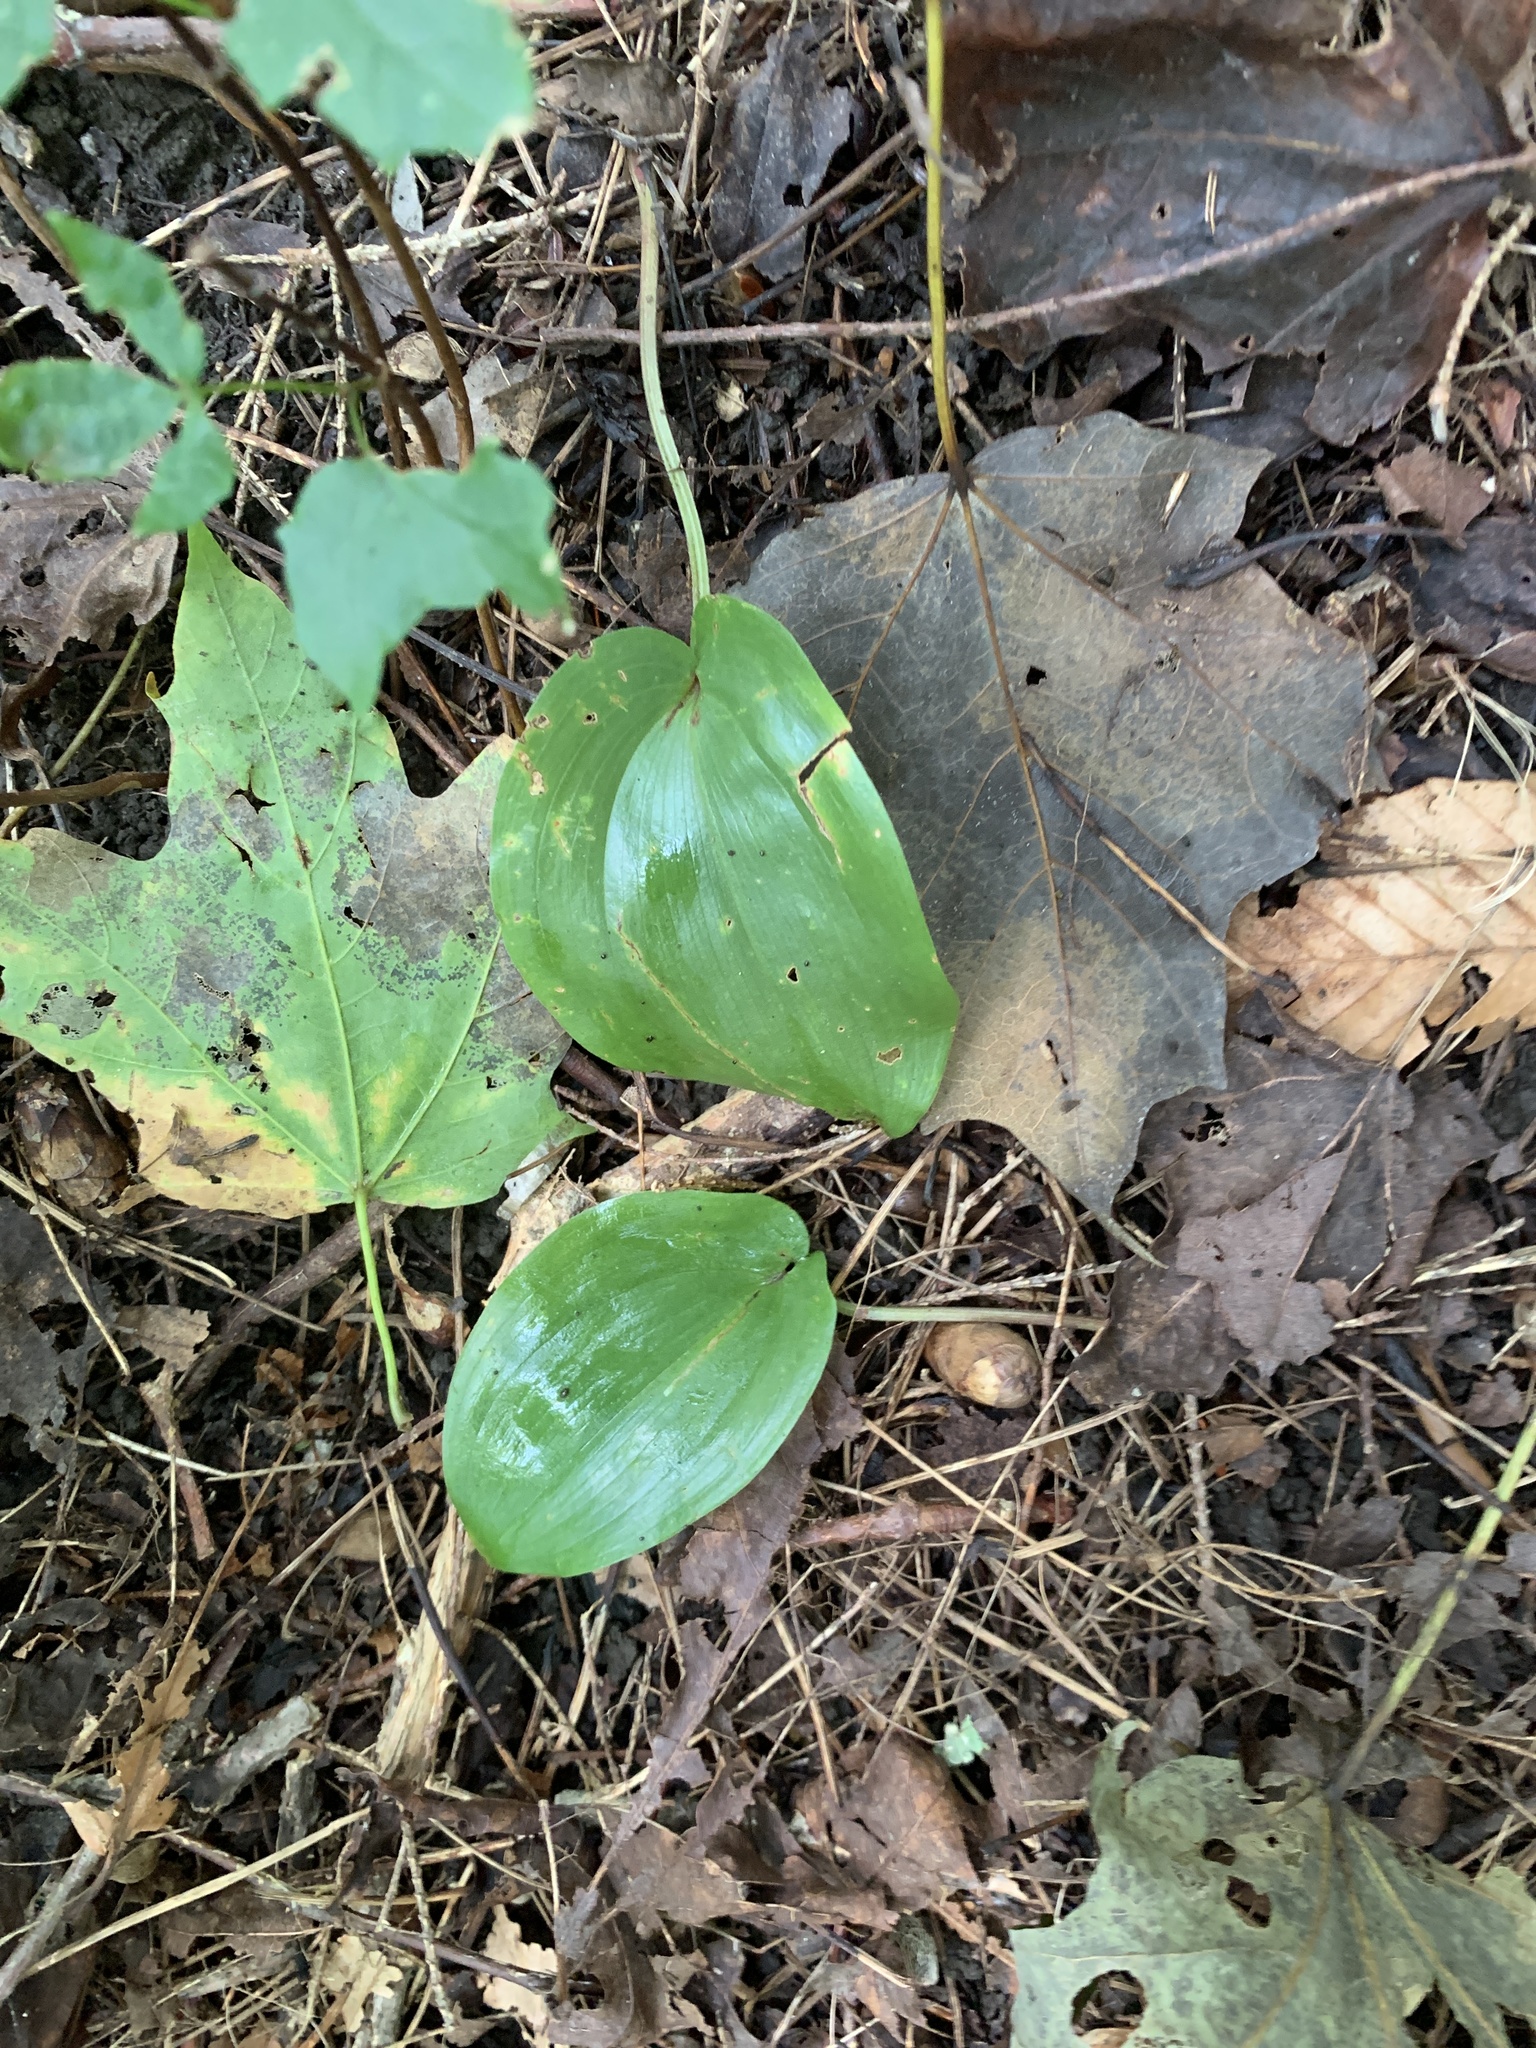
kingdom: Plantae
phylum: Tracheophyta
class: Liliopsida
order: Asparagales
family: Asparagaceae
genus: Maianthemum
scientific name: Maianthemum canadense
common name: False lily-of-the-valley
